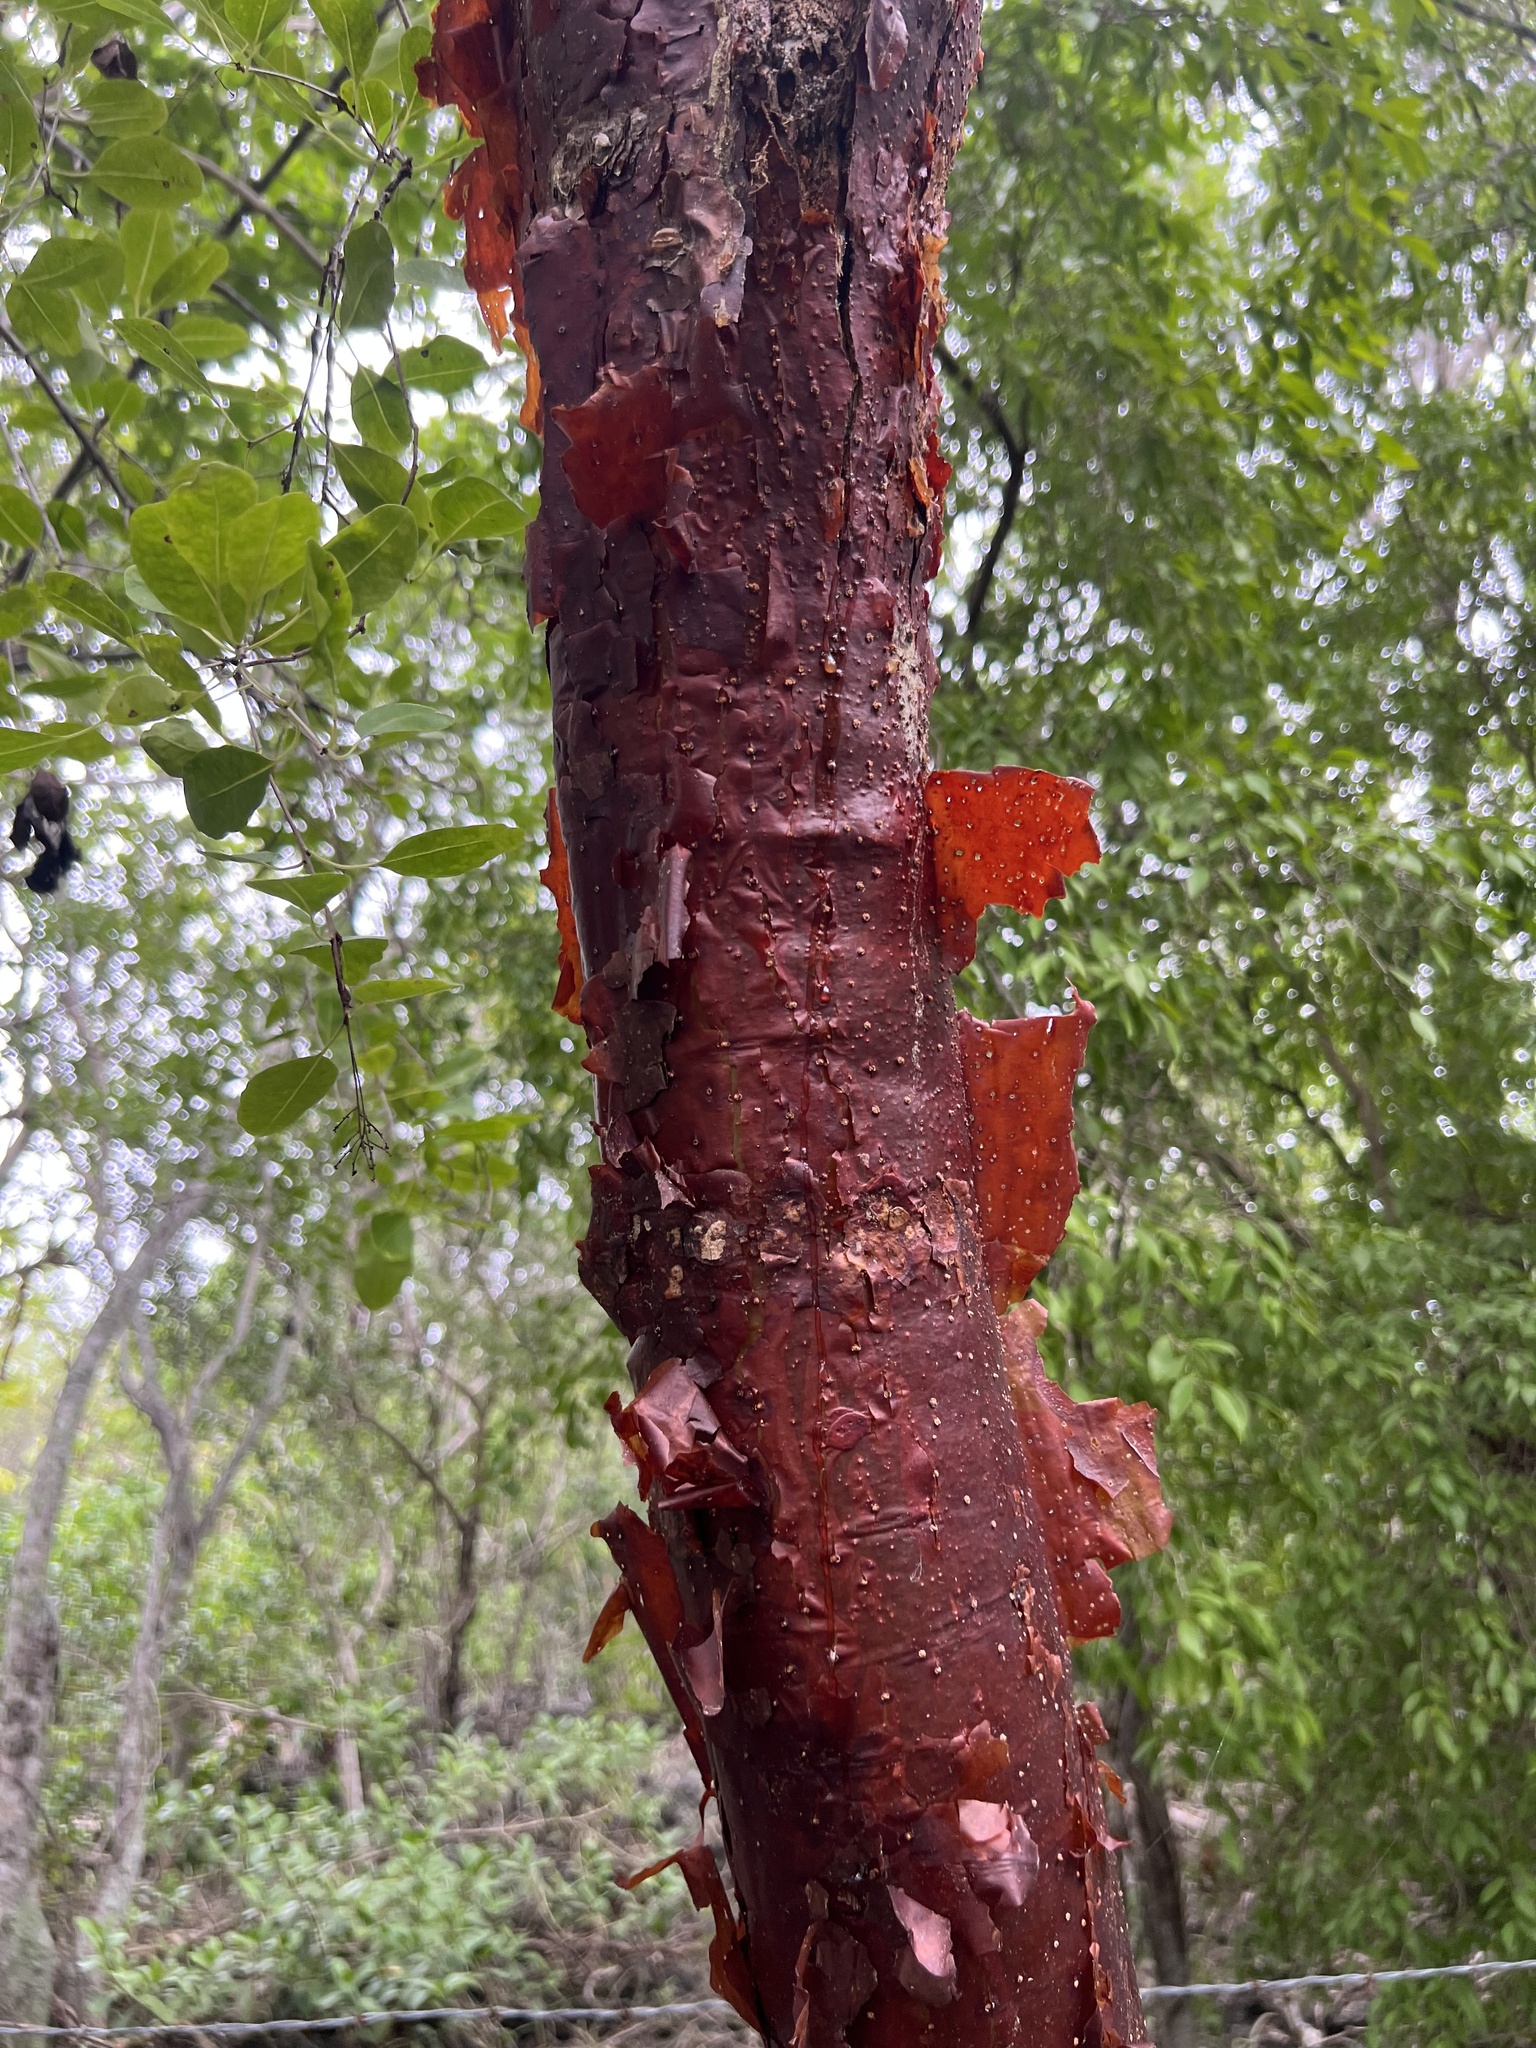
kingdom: Plantae
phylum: Tracheophyta
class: Magnoliopsida
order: Sapindales
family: Burseraceae
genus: Bursera
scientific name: Bursera simaruba
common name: Turpentine tree
